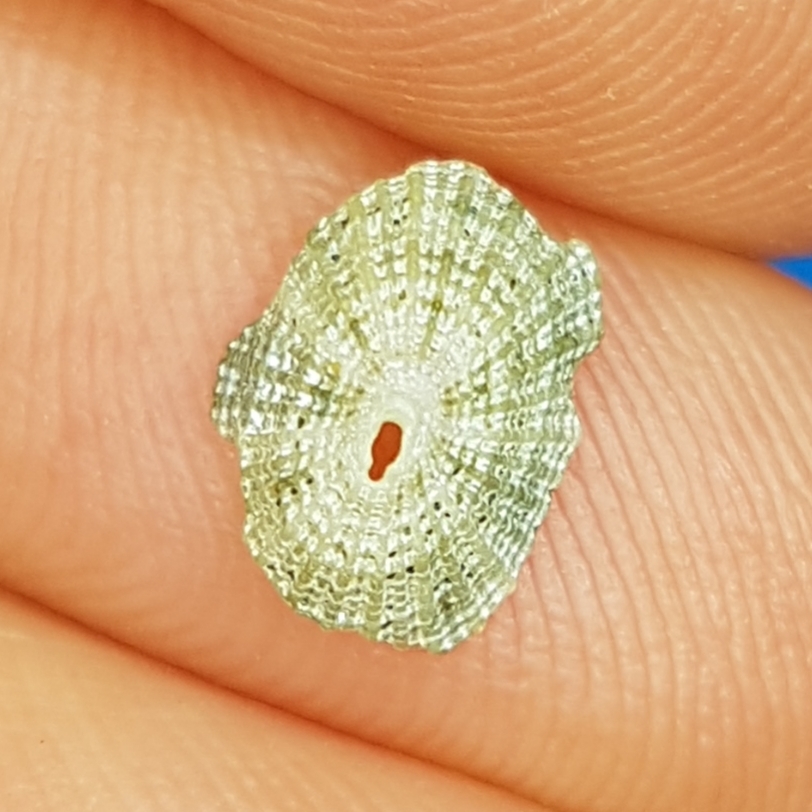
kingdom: Animalia
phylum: Mollusca
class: Gastropoda
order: Lepetellida
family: Fissurellidae
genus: Diodora
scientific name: Diodora gibberula
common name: Humped keyhole limpet
